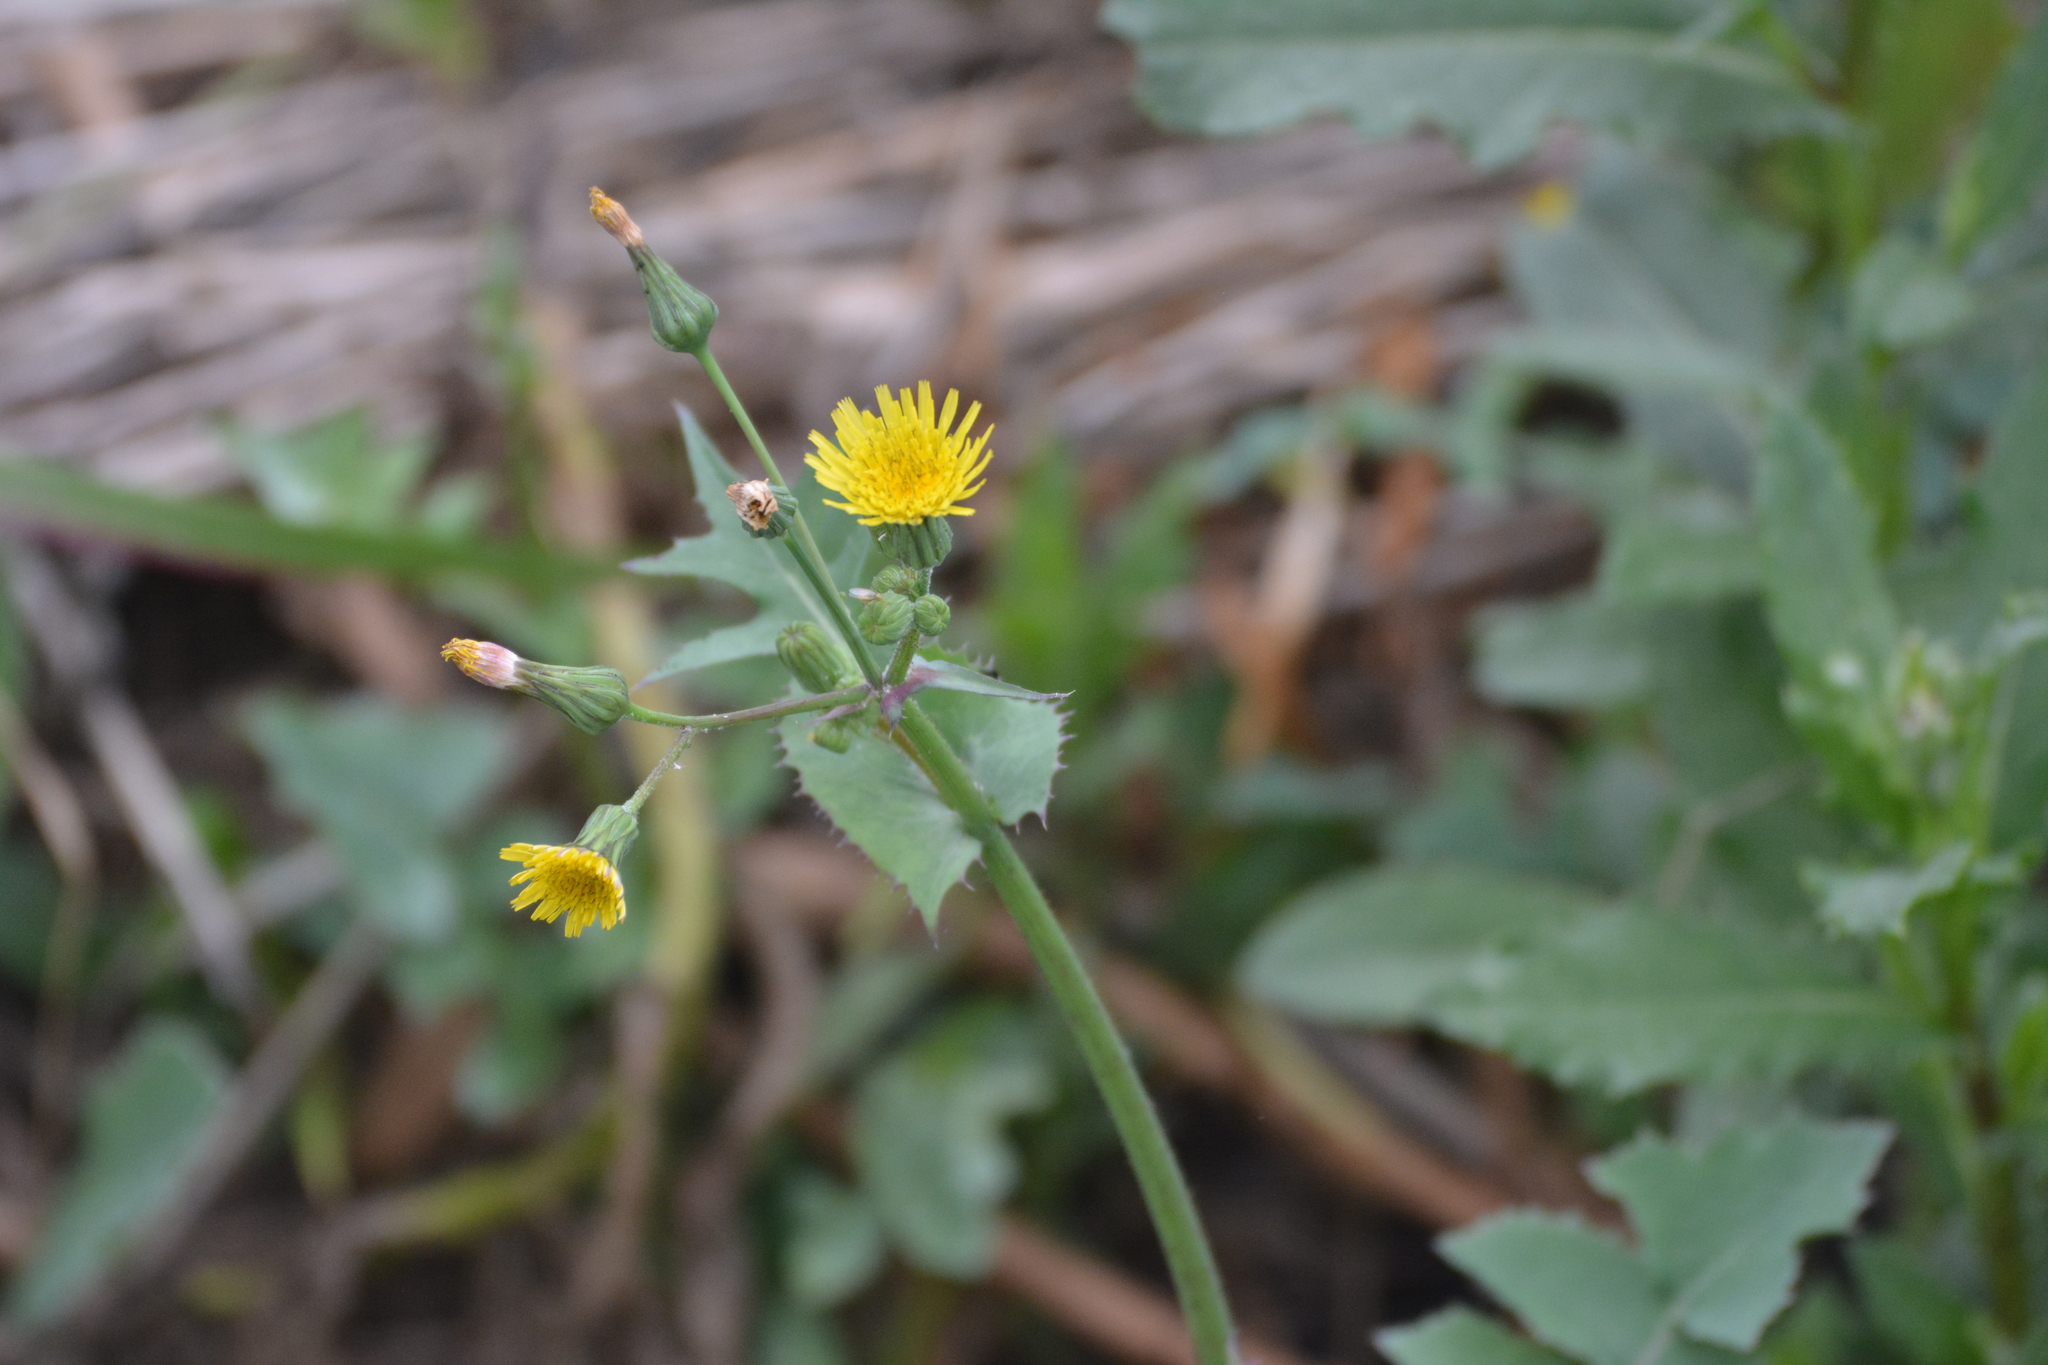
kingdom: Plantae
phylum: Tracheophyta
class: Magnoliopsida
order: Asterales
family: Asteraceae
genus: Sonchus
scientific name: Sonchus oleraceus
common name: Common sowthistle
